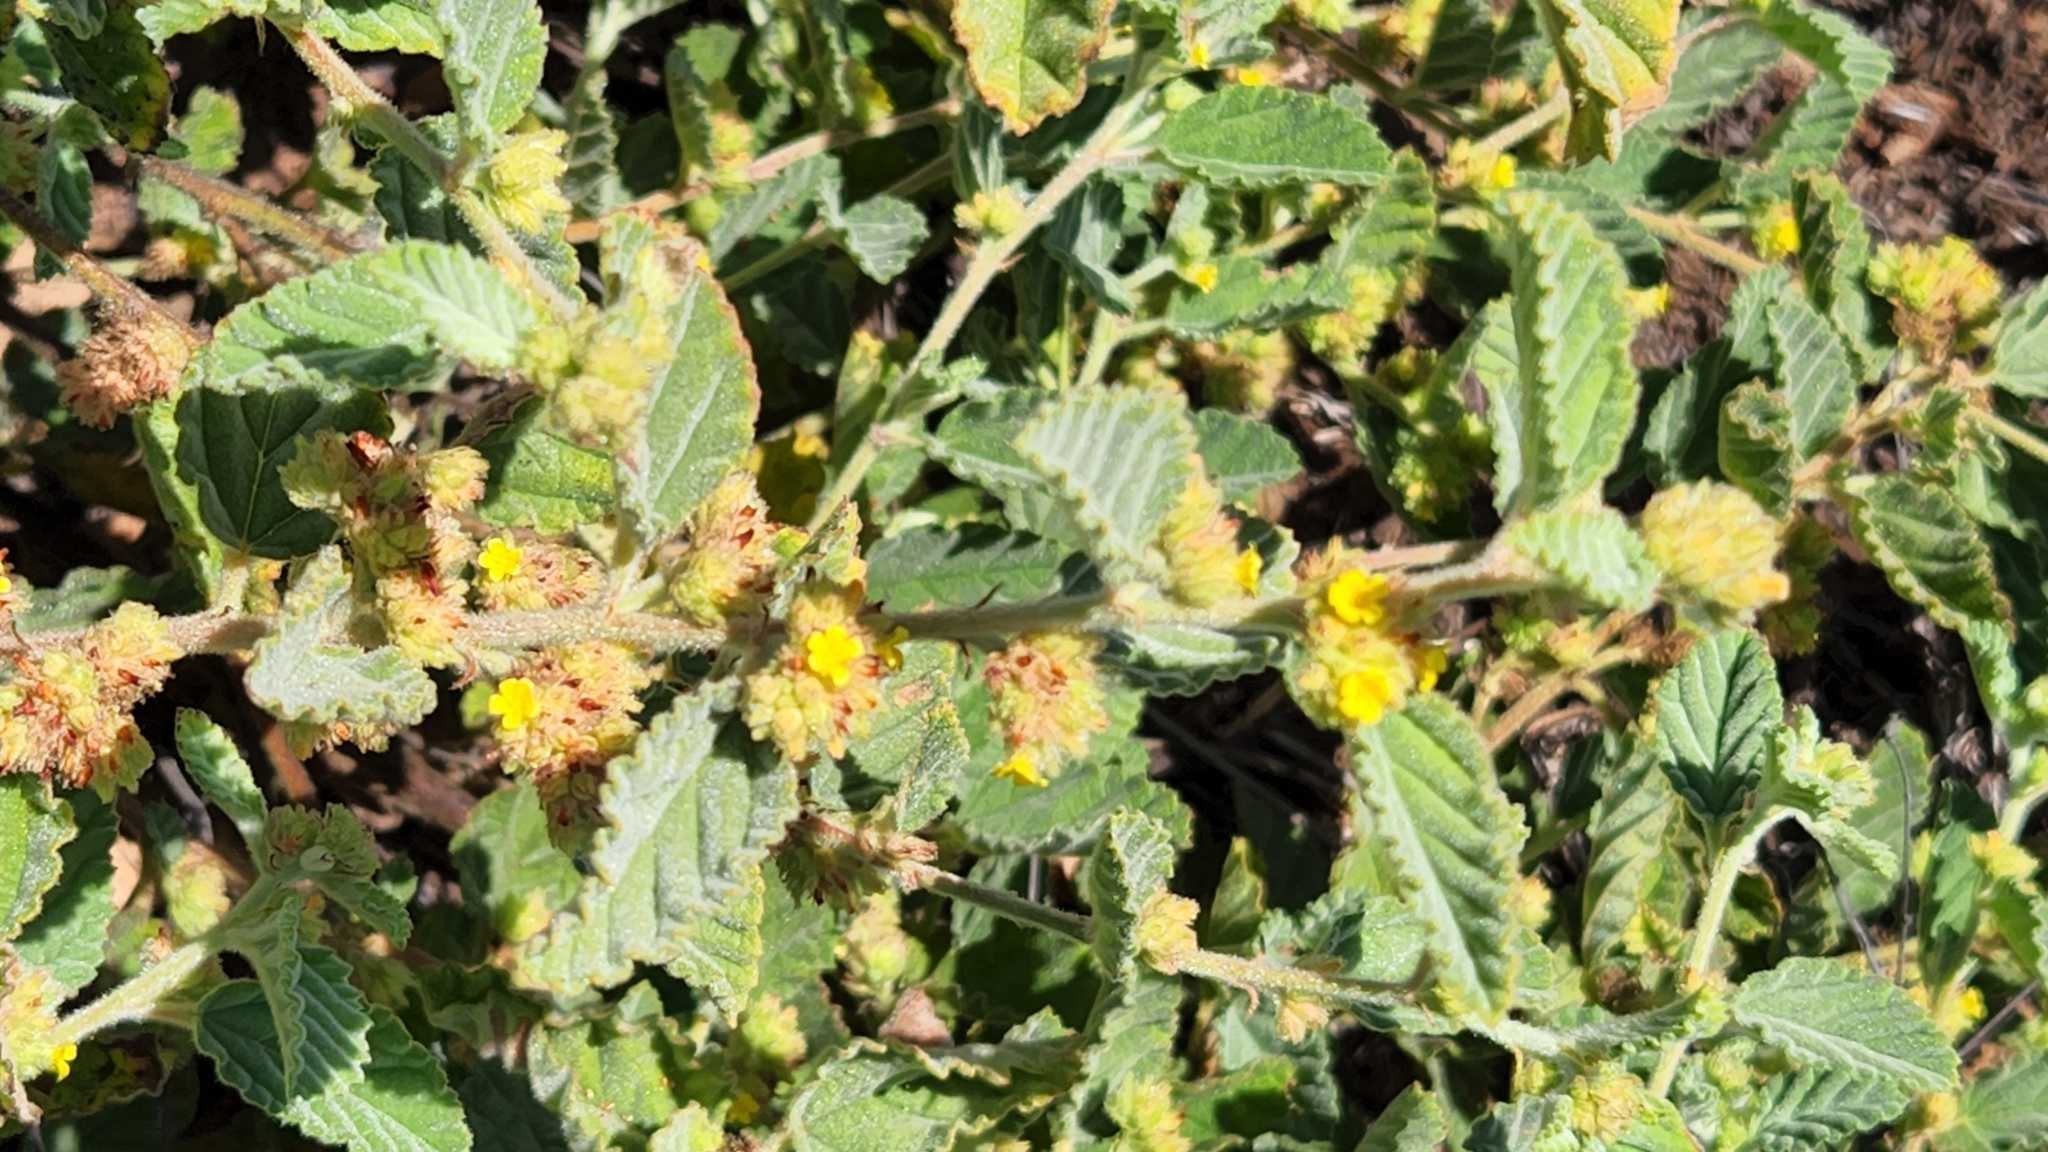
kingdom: Plantae
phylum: Tracheophyta
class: Magnoliopsida
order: Malvales
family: Malvaceae
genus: Waltheria
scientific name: Waltheria indica
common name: Leather-coat
